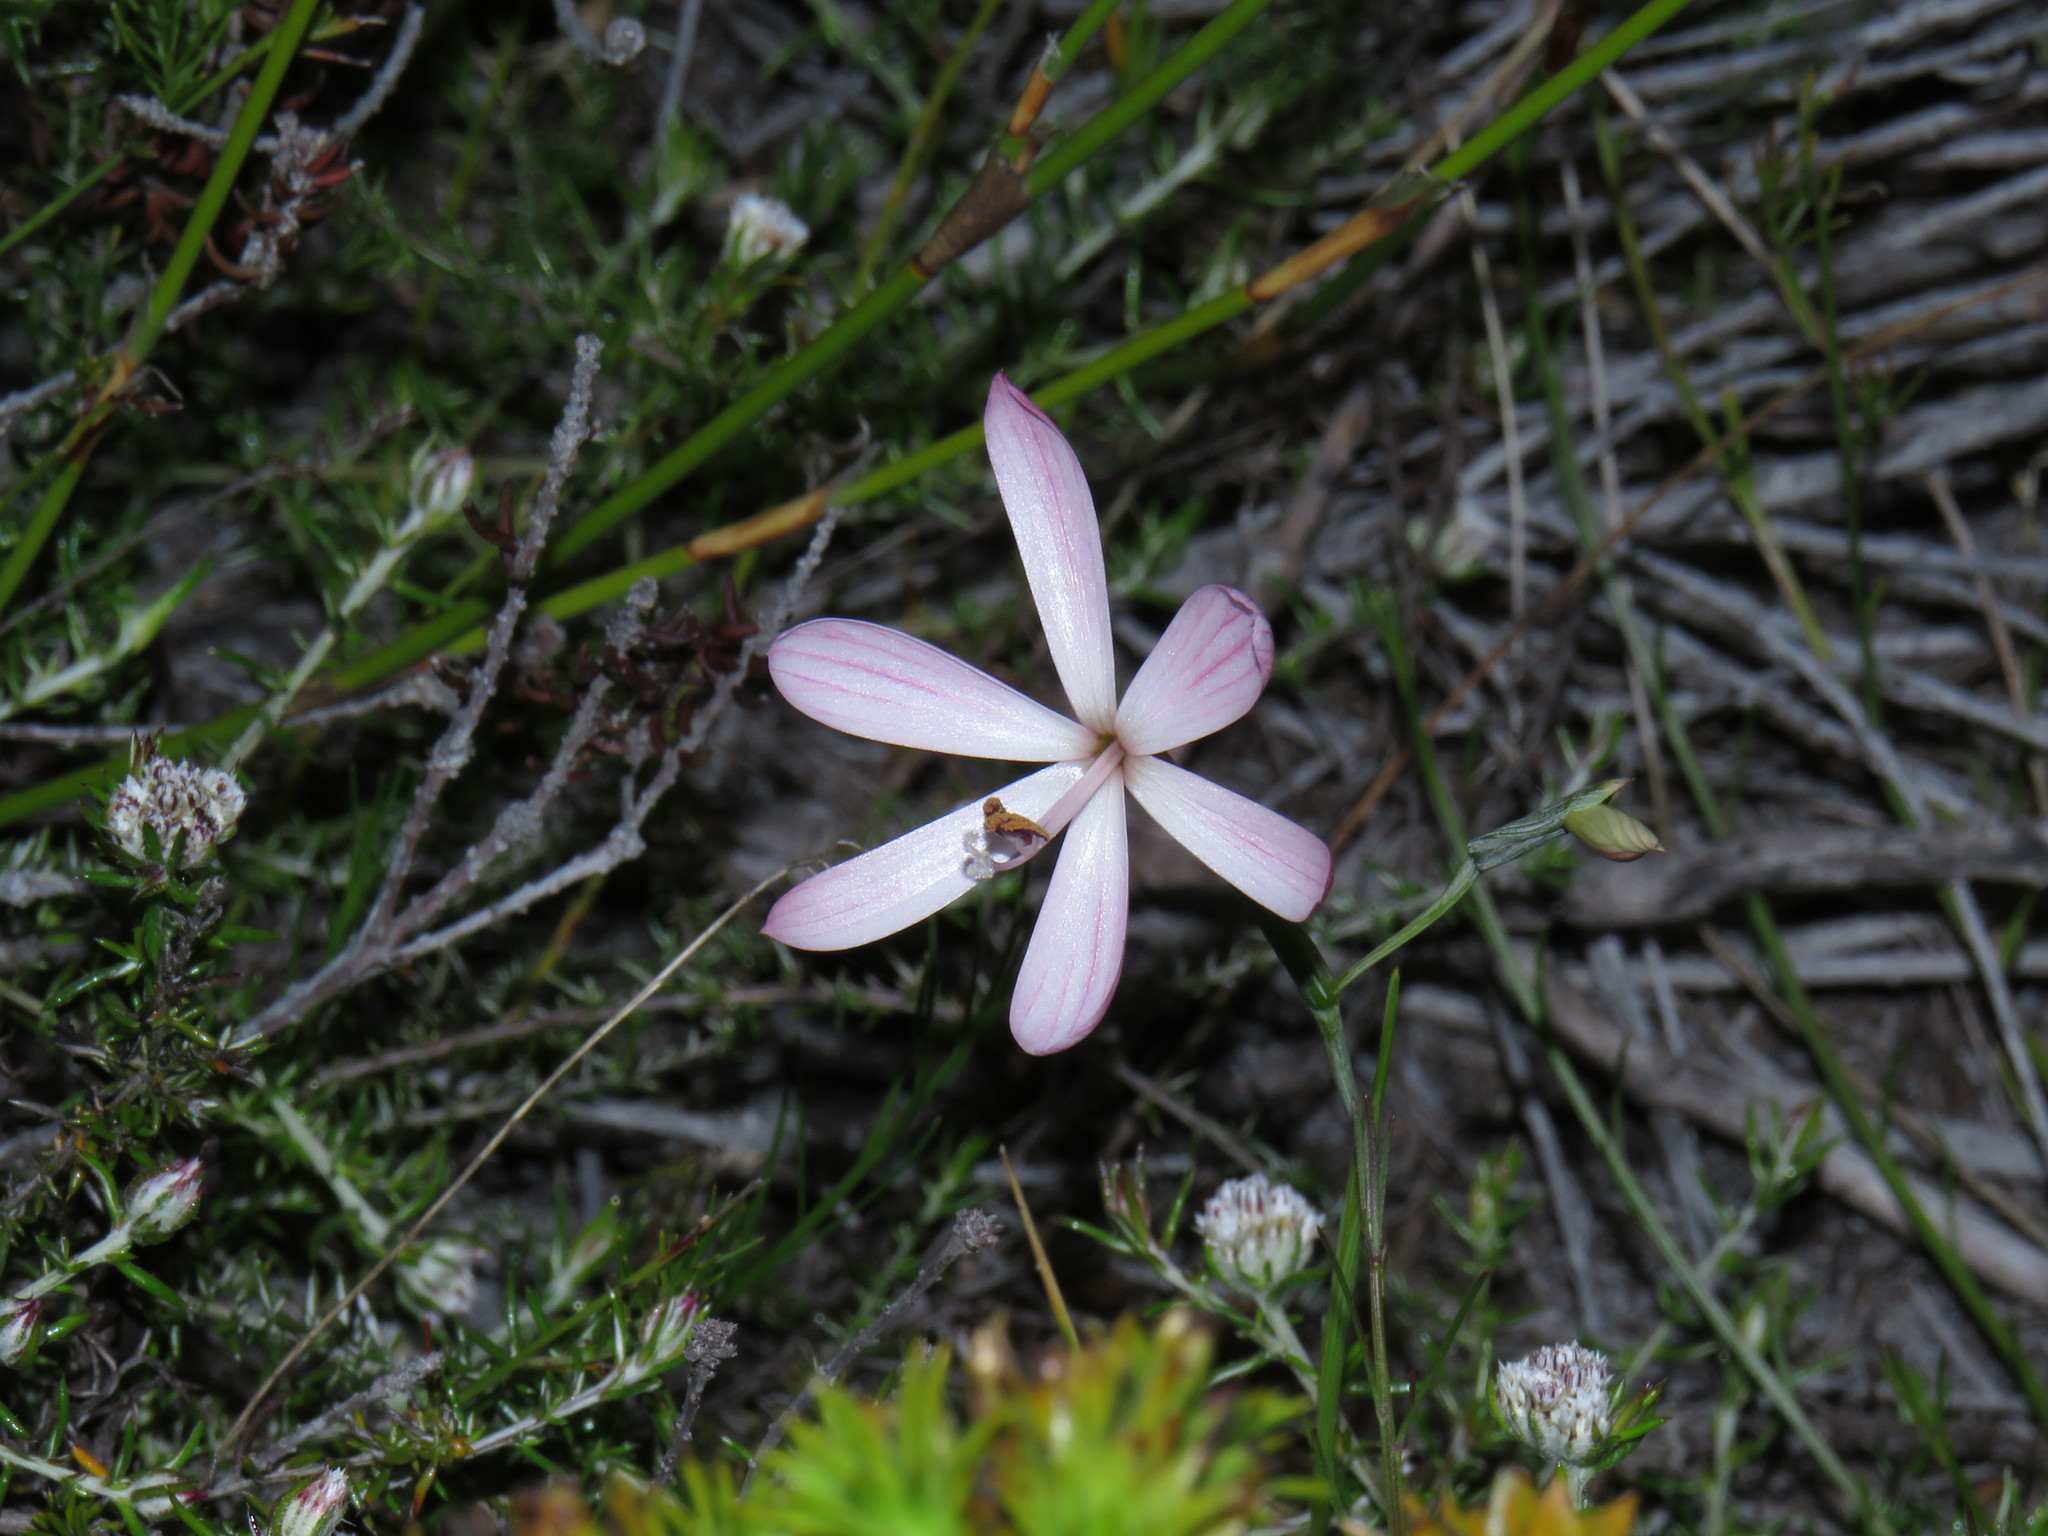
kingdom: Plantae
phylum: Tracheophyta
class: Liliopsida
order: Asparagales
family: Iridaceae
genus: Geissorhiza
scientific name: Geissorhiza bonae-spei
